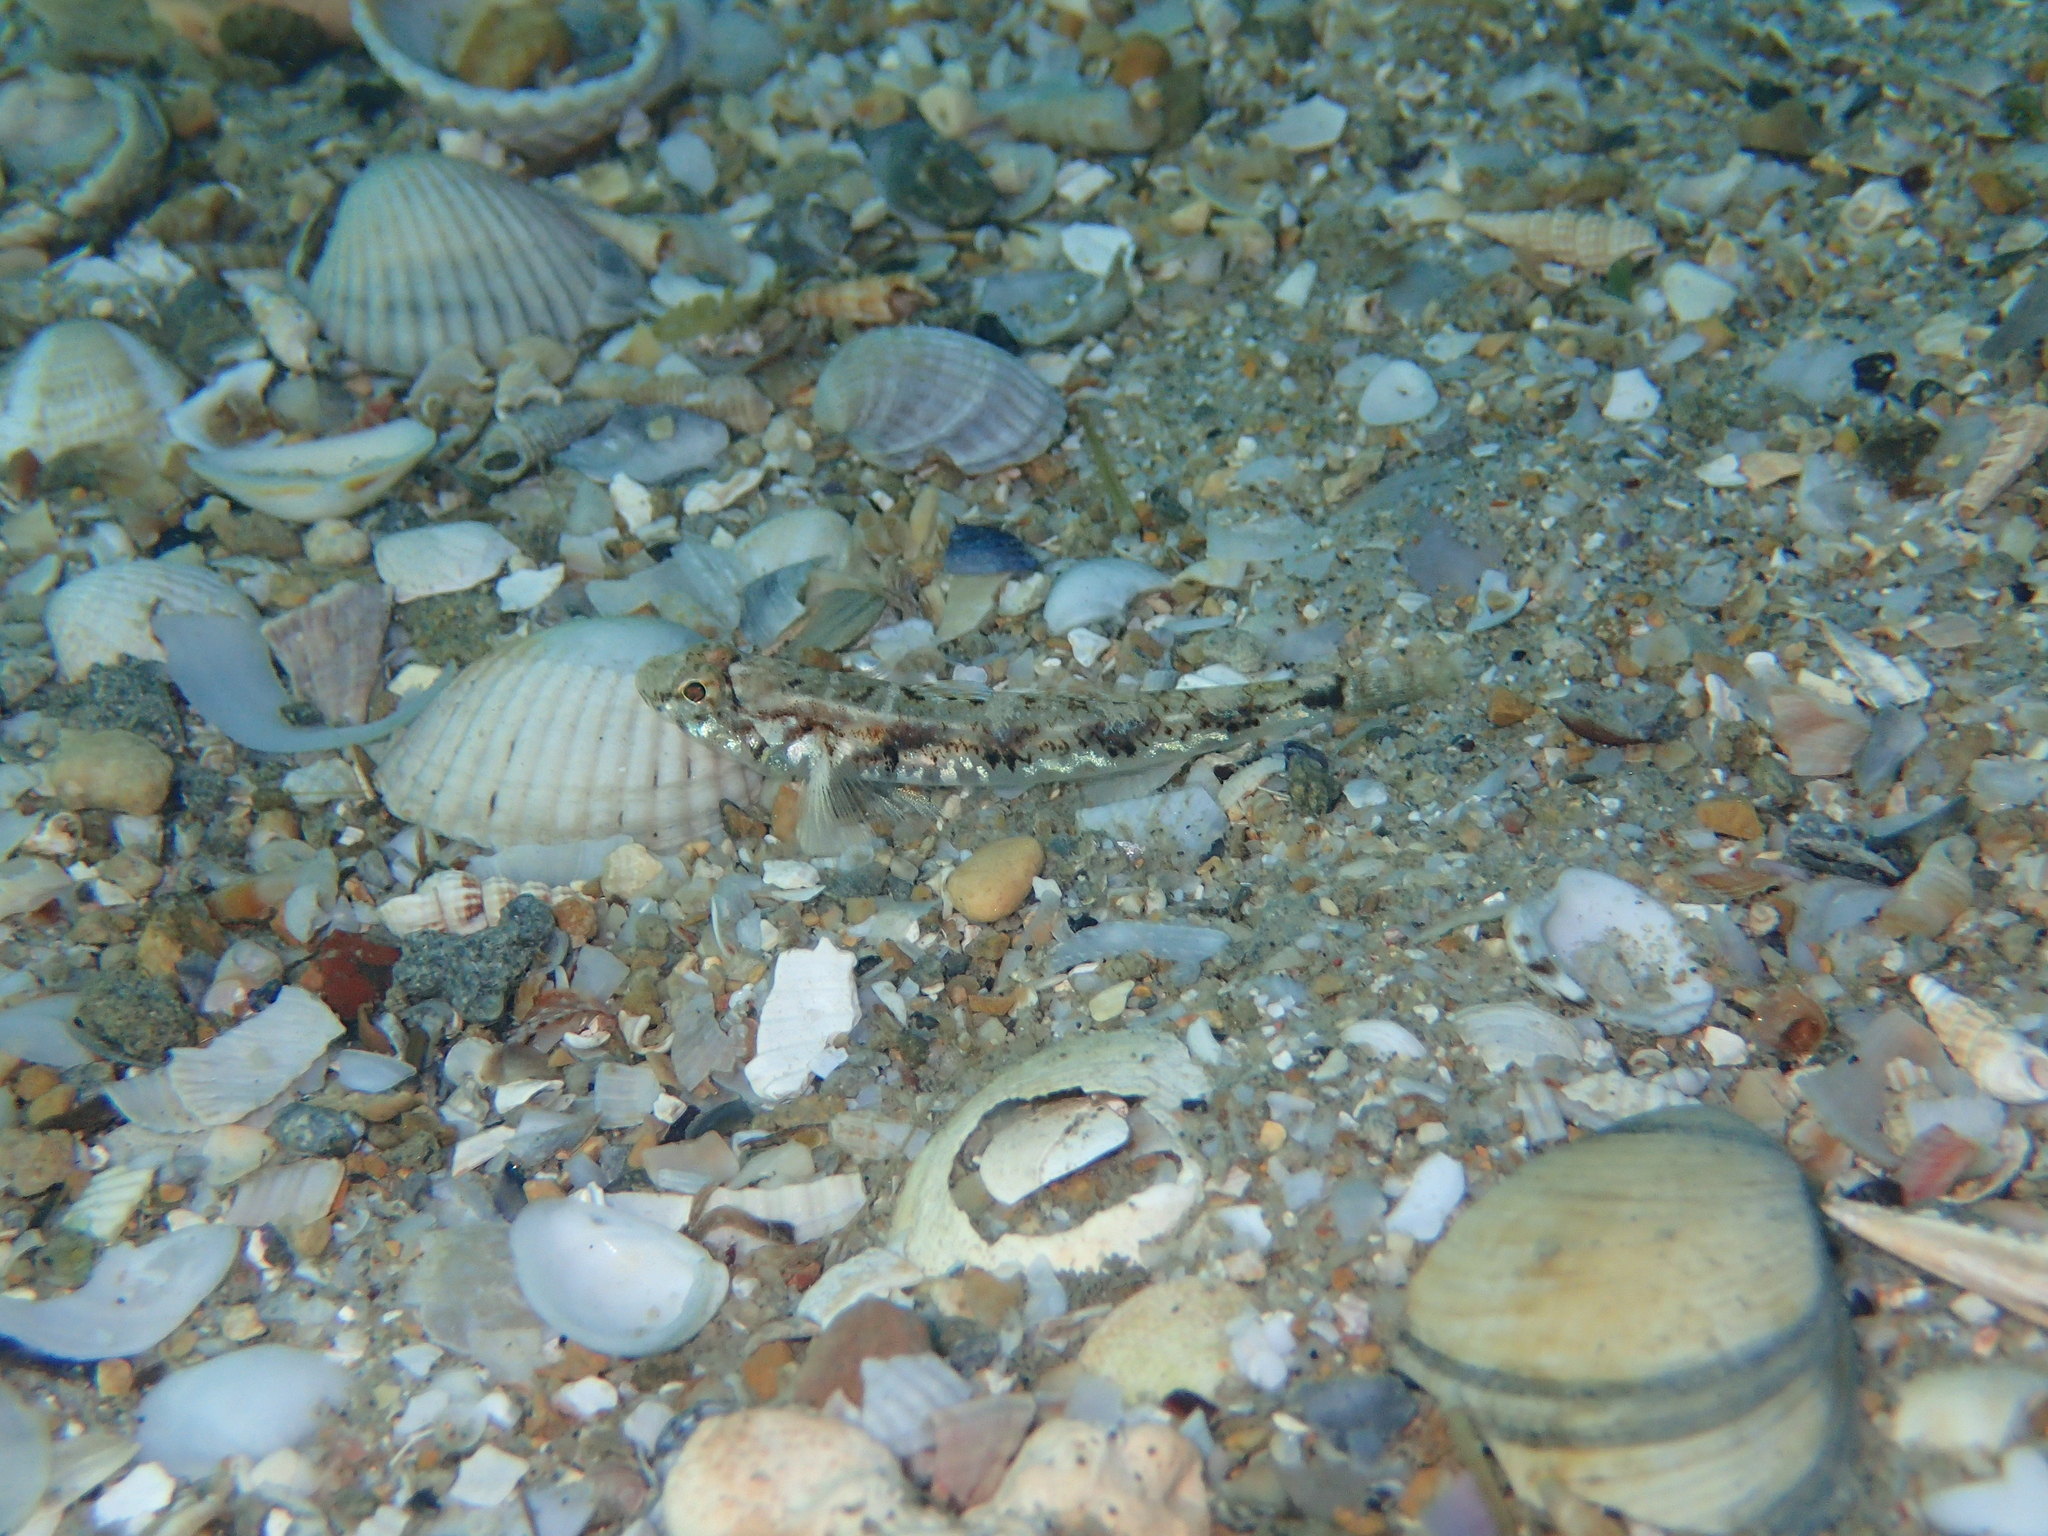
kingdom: Animalia
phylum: Chordata
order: Perciformes
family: Gobiidae
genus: Pomatoschistus
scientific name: Pomatoschistus pictus
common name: Painted goby
